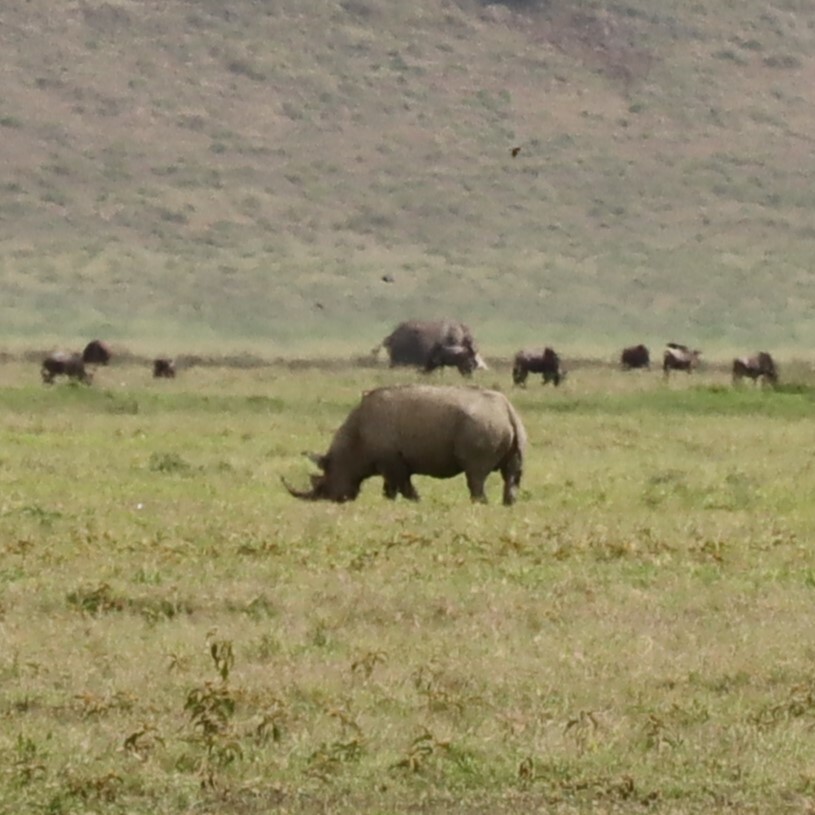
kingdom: Animalia
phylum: Chordata
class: Mammalia
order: Perissodactyla
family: Rhinocerotidae
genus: Diceros
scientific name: Diceros bicornis
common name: Black rhinoceros
